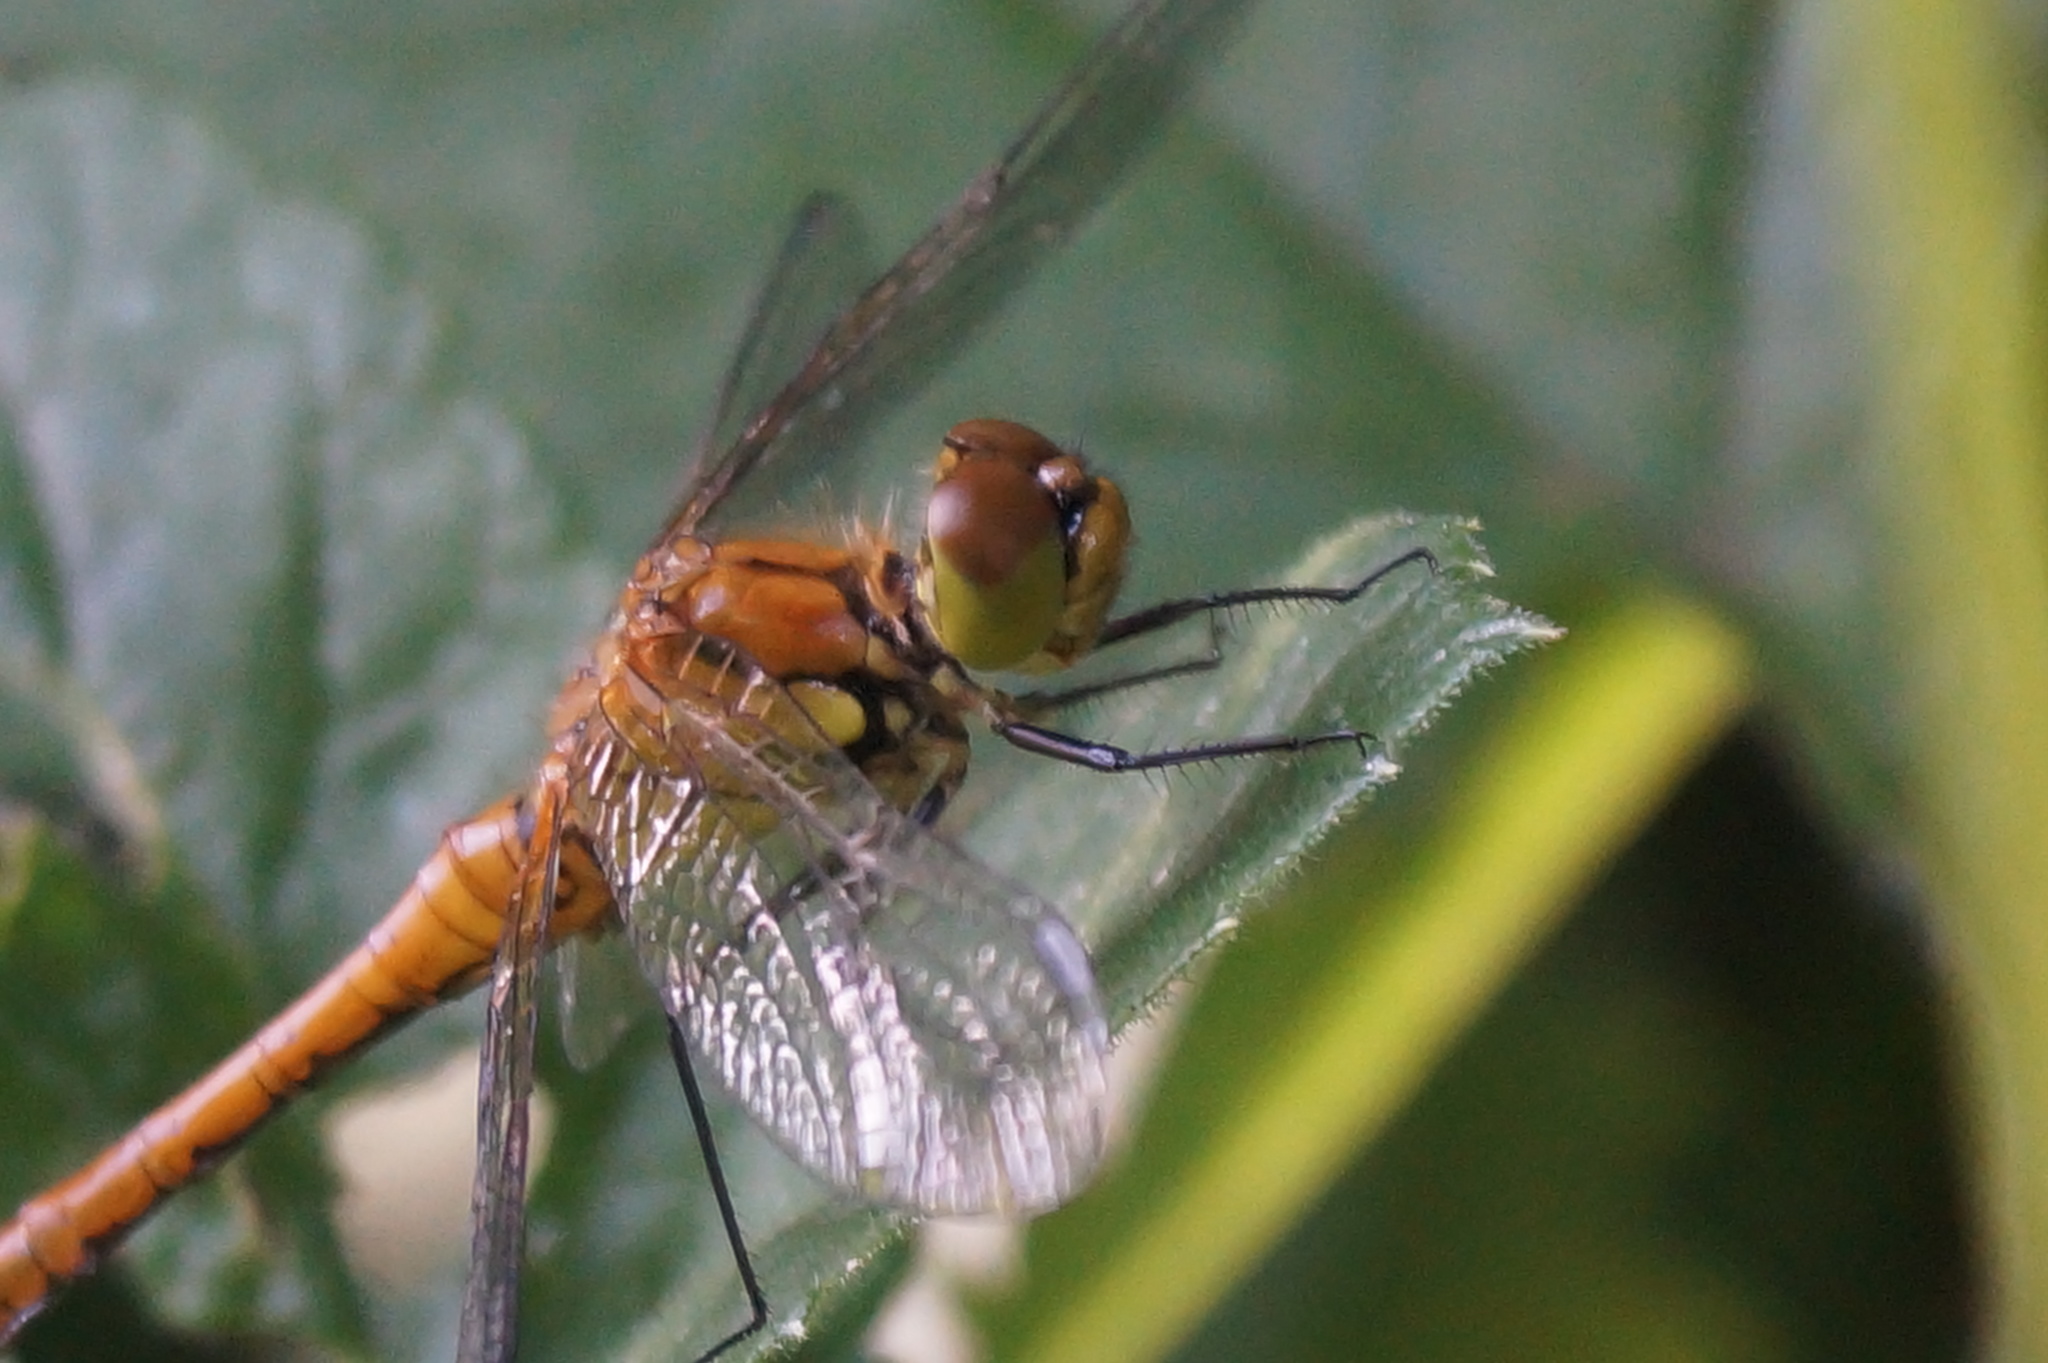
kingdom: Animalia
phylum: Arthropoda
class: Insecta
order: Odonata
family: Libellulidae
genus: Sympetrum
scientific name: Sympetrum sanguineum
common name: Ruddy darter
